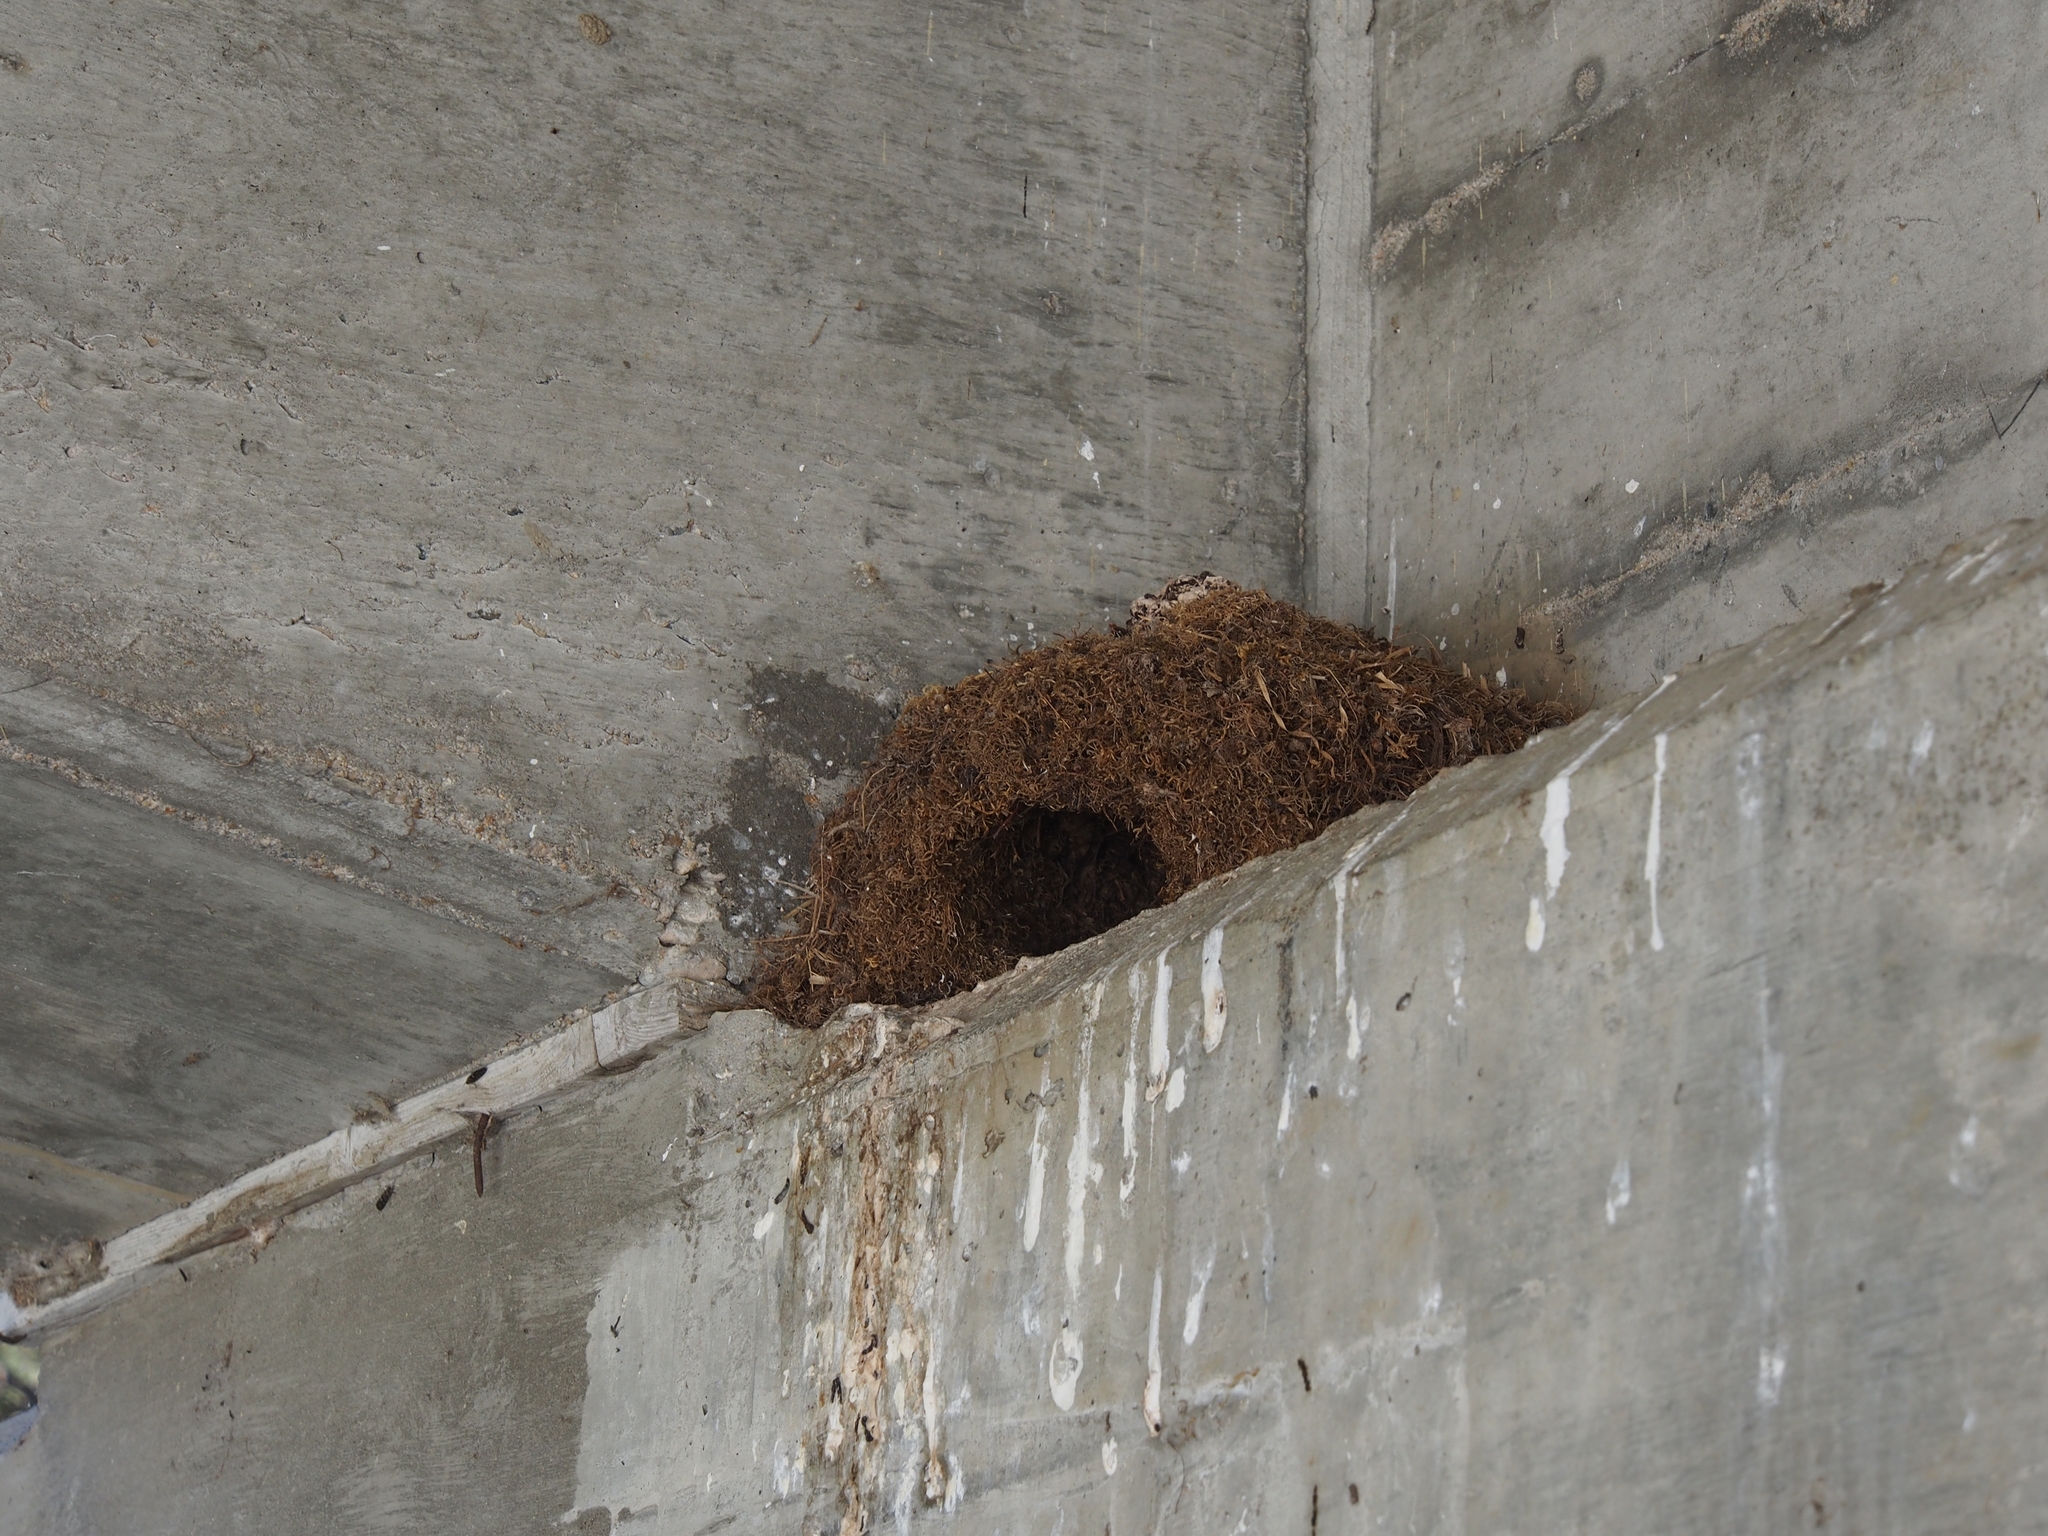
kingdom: Animalia
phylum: Chordata
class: Aves
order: Passeriformes
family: Cinclidae
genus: Cinclus
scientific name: Cinclus mexicanus
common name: American dipper
